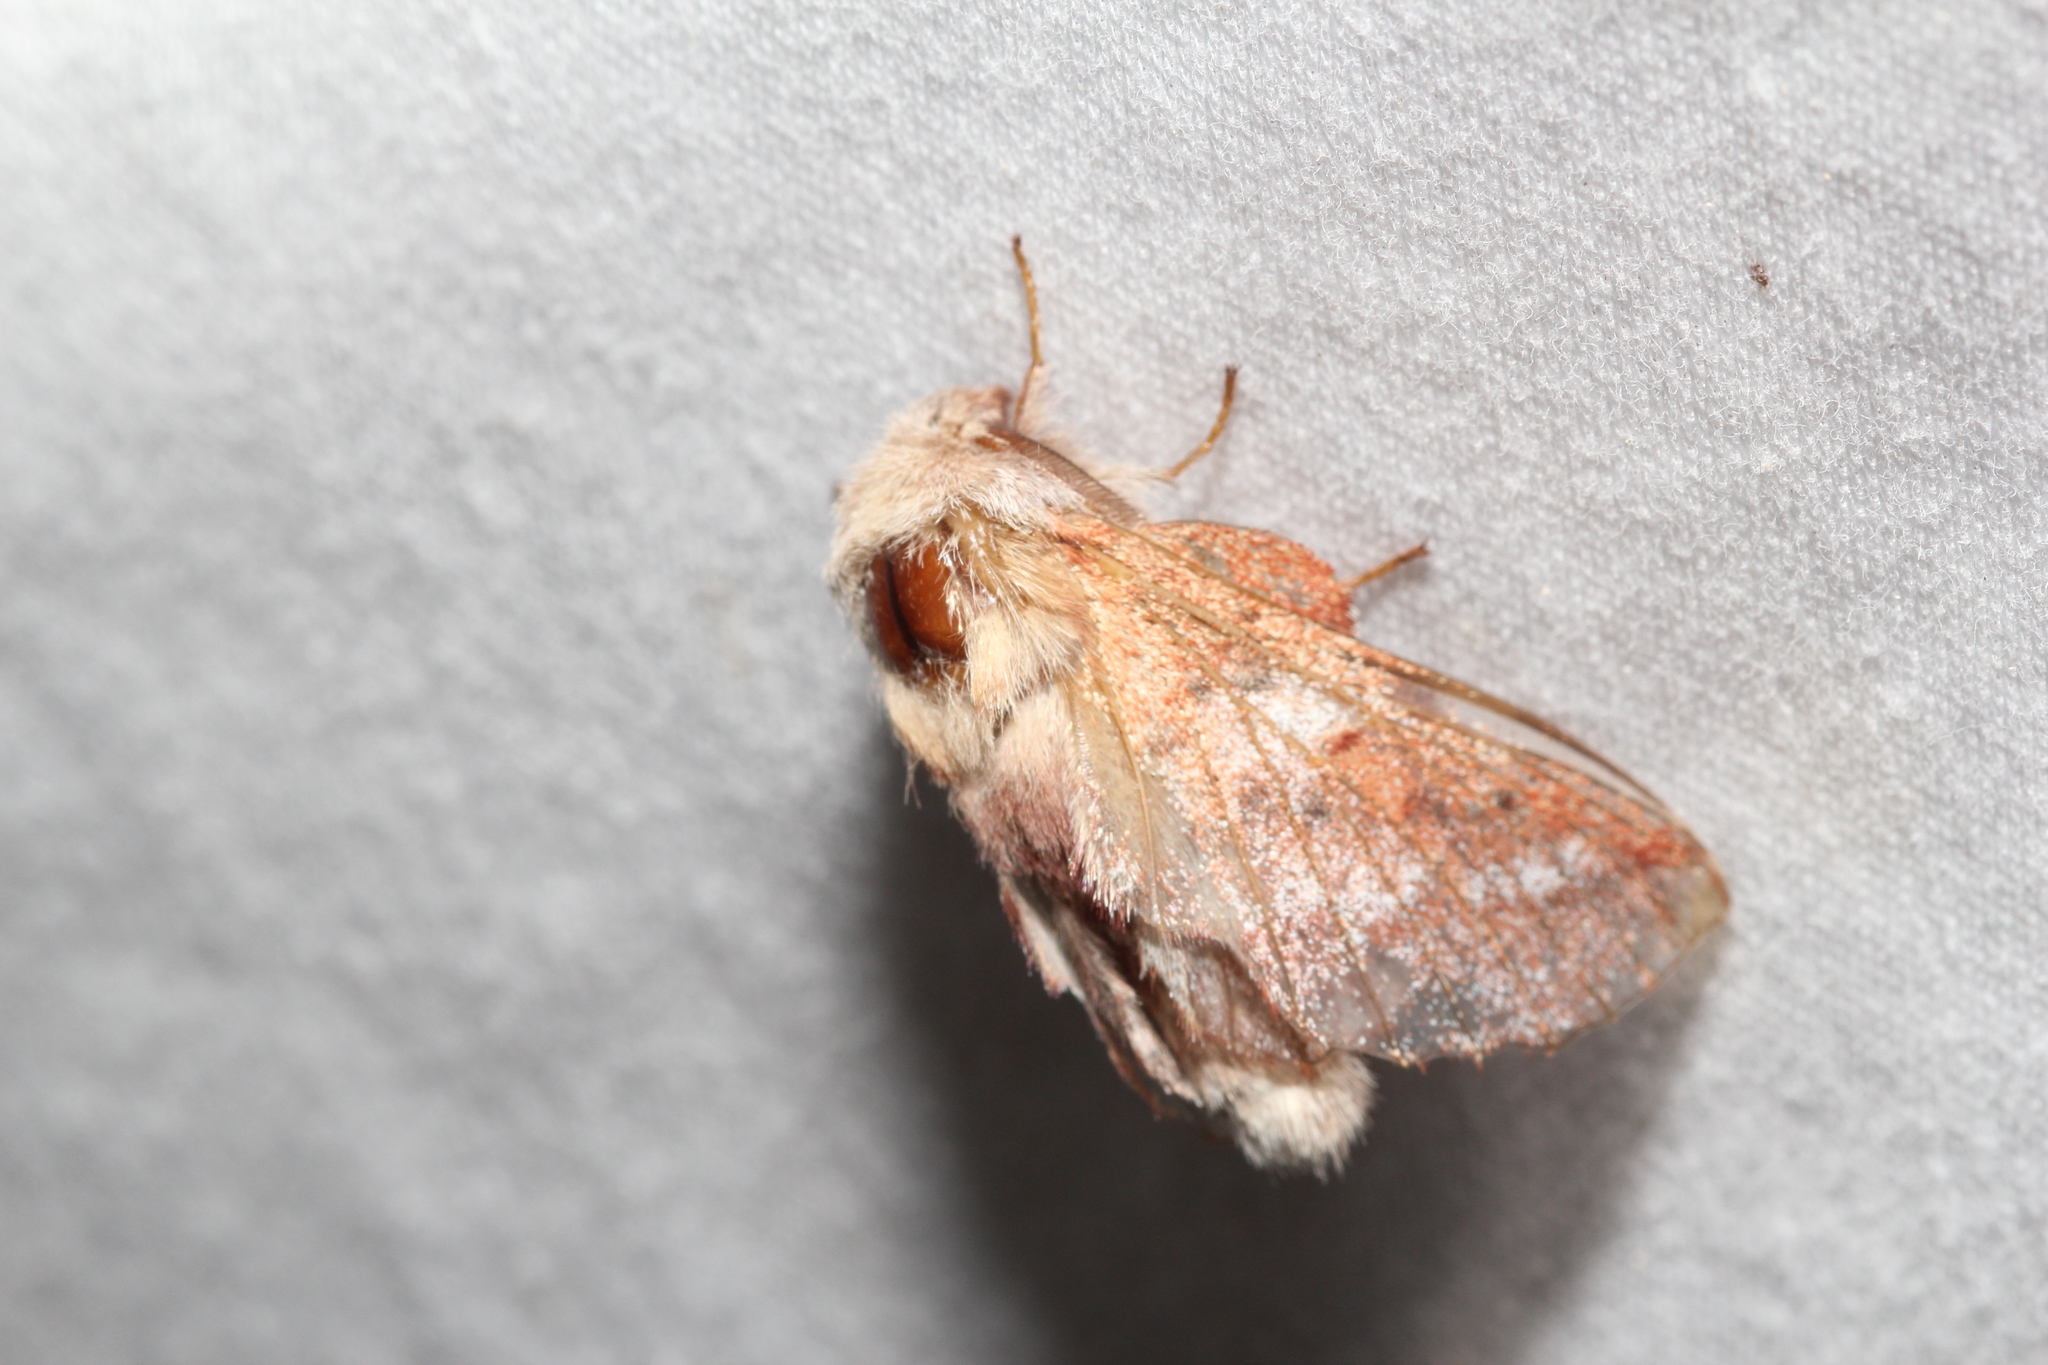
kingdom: Animalia
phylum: Arthropoda
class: Insecta
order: Lepidoptera
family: Lasiocampidae
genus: Phyllodesma
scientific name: Phyllodesma americana
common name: American lappet moth
